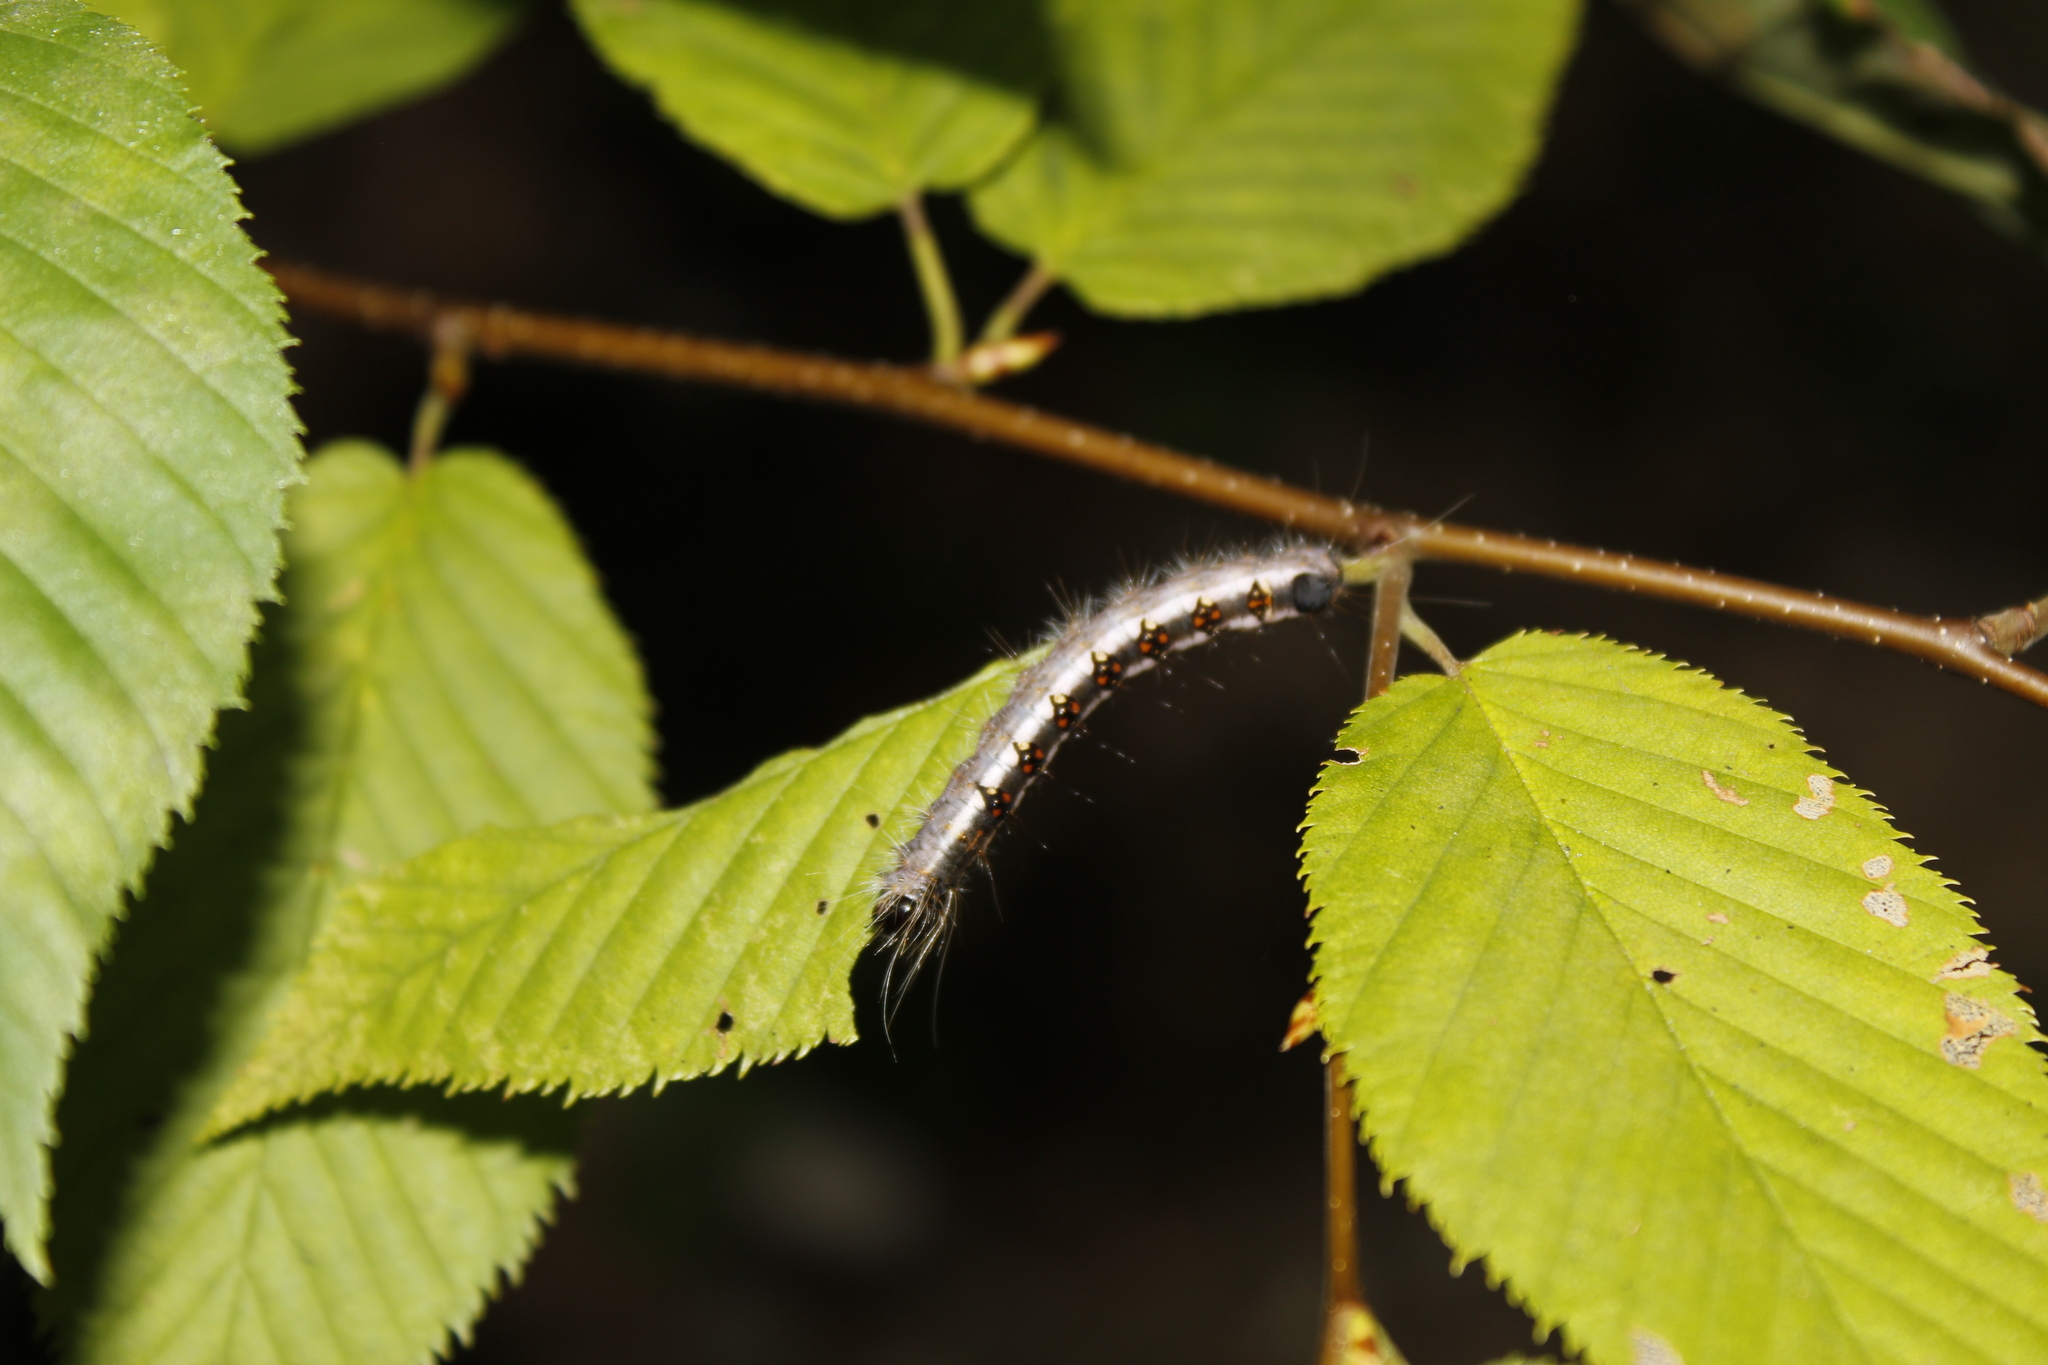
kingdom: Animalia
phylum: Arthropoda
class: Insecta
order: Lepidoptera
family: Noctuidae
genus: Acronicta
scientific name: Acronicta interrupta
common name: Interrupted dagger
